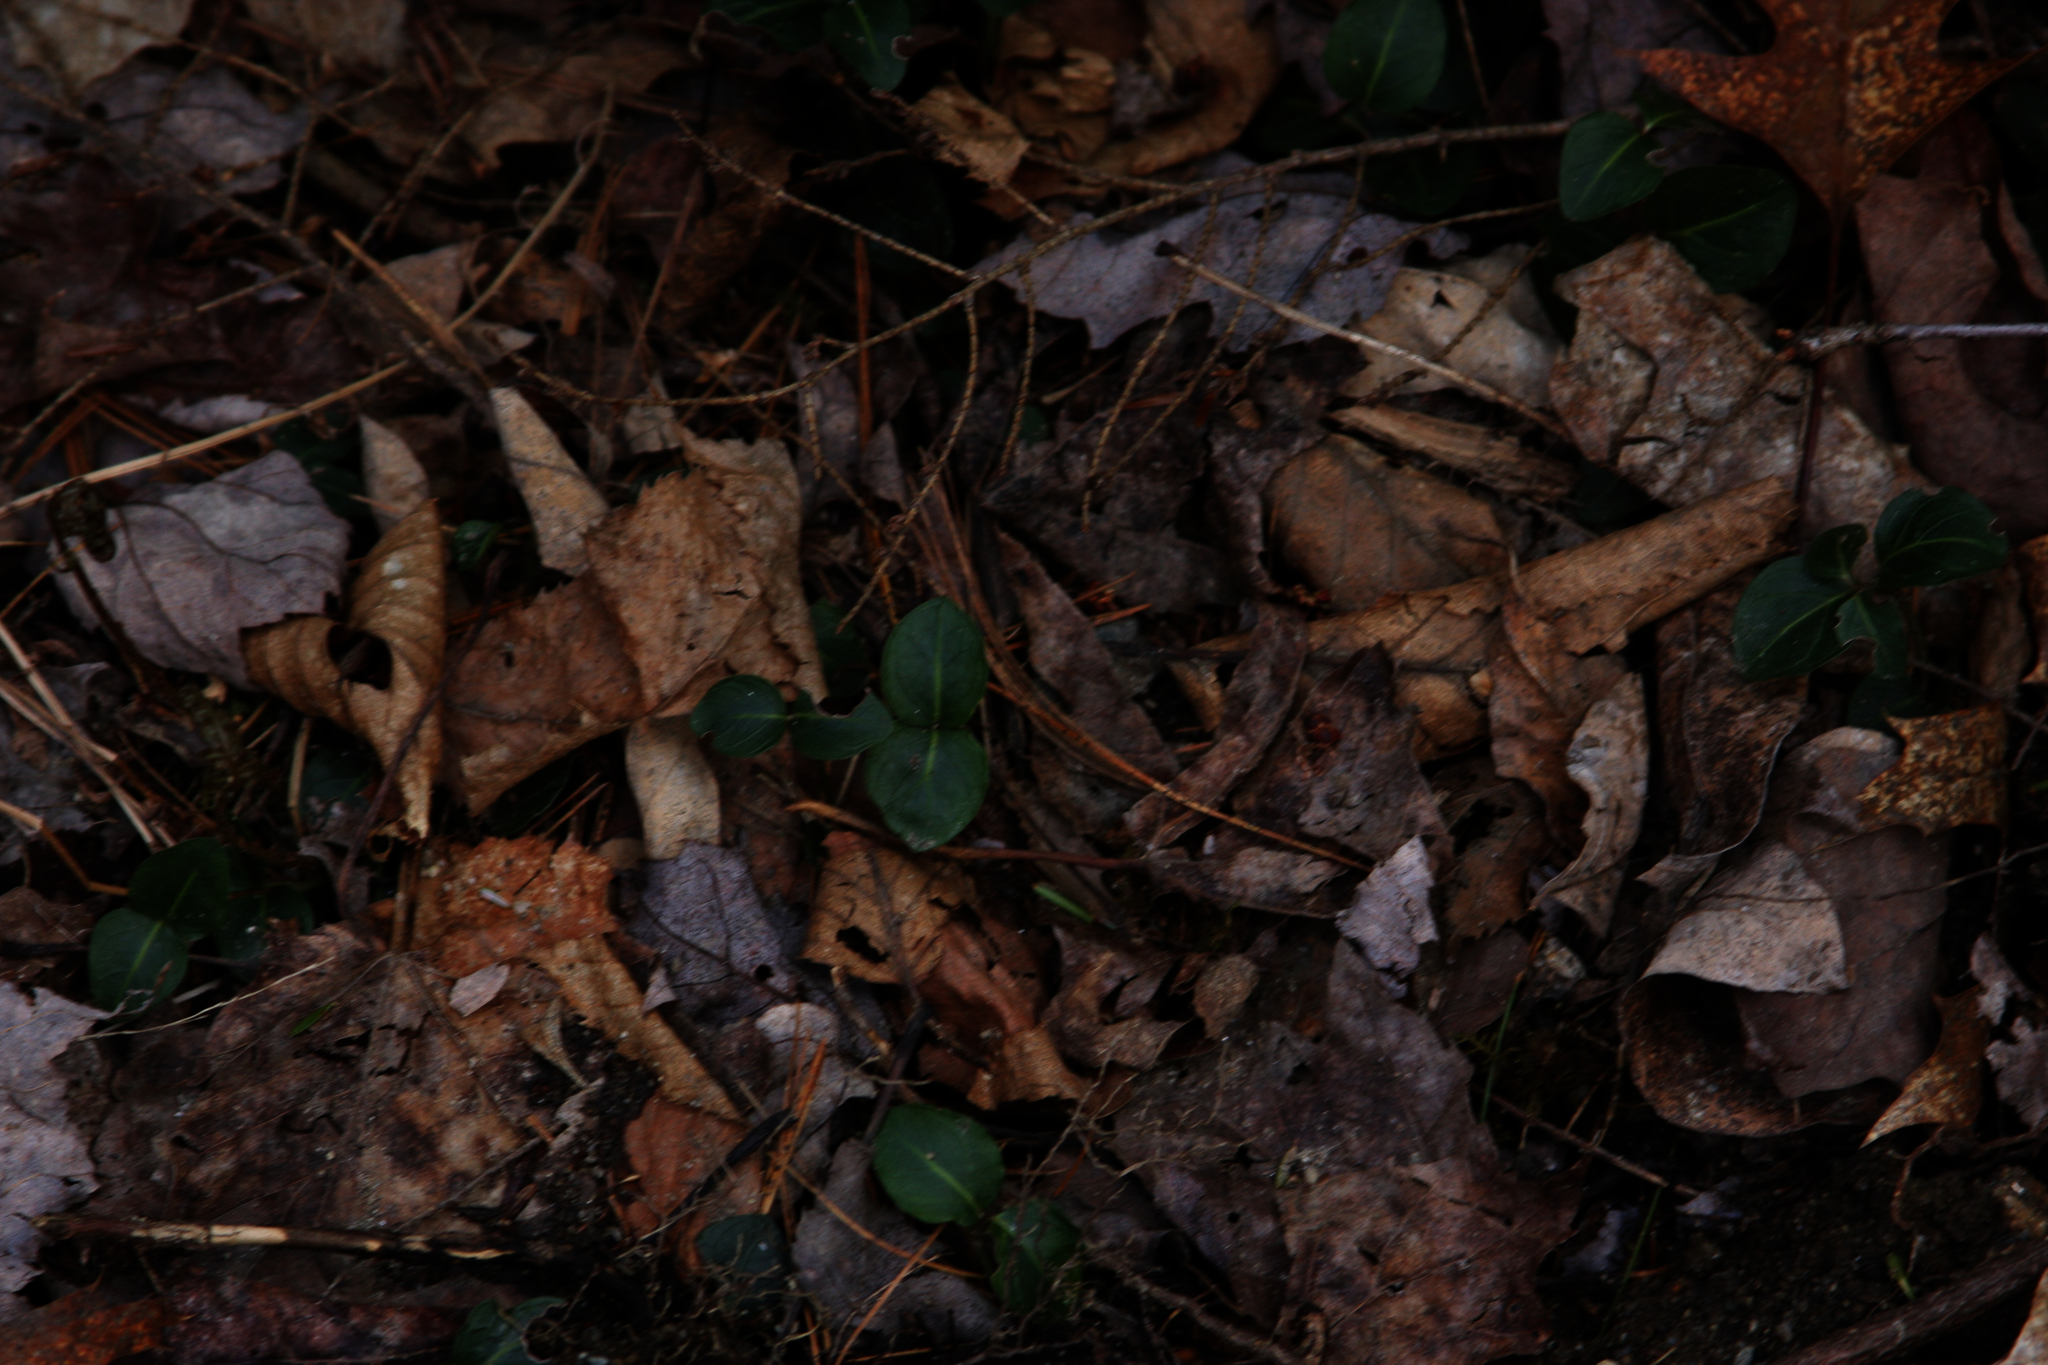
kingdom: Plantae
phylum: Tracheophyta
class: Magnoliopsida
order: Gentianales
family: Rubiaceae
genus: Mitchella
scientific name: Mitchella repens
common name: Partridge-berry
